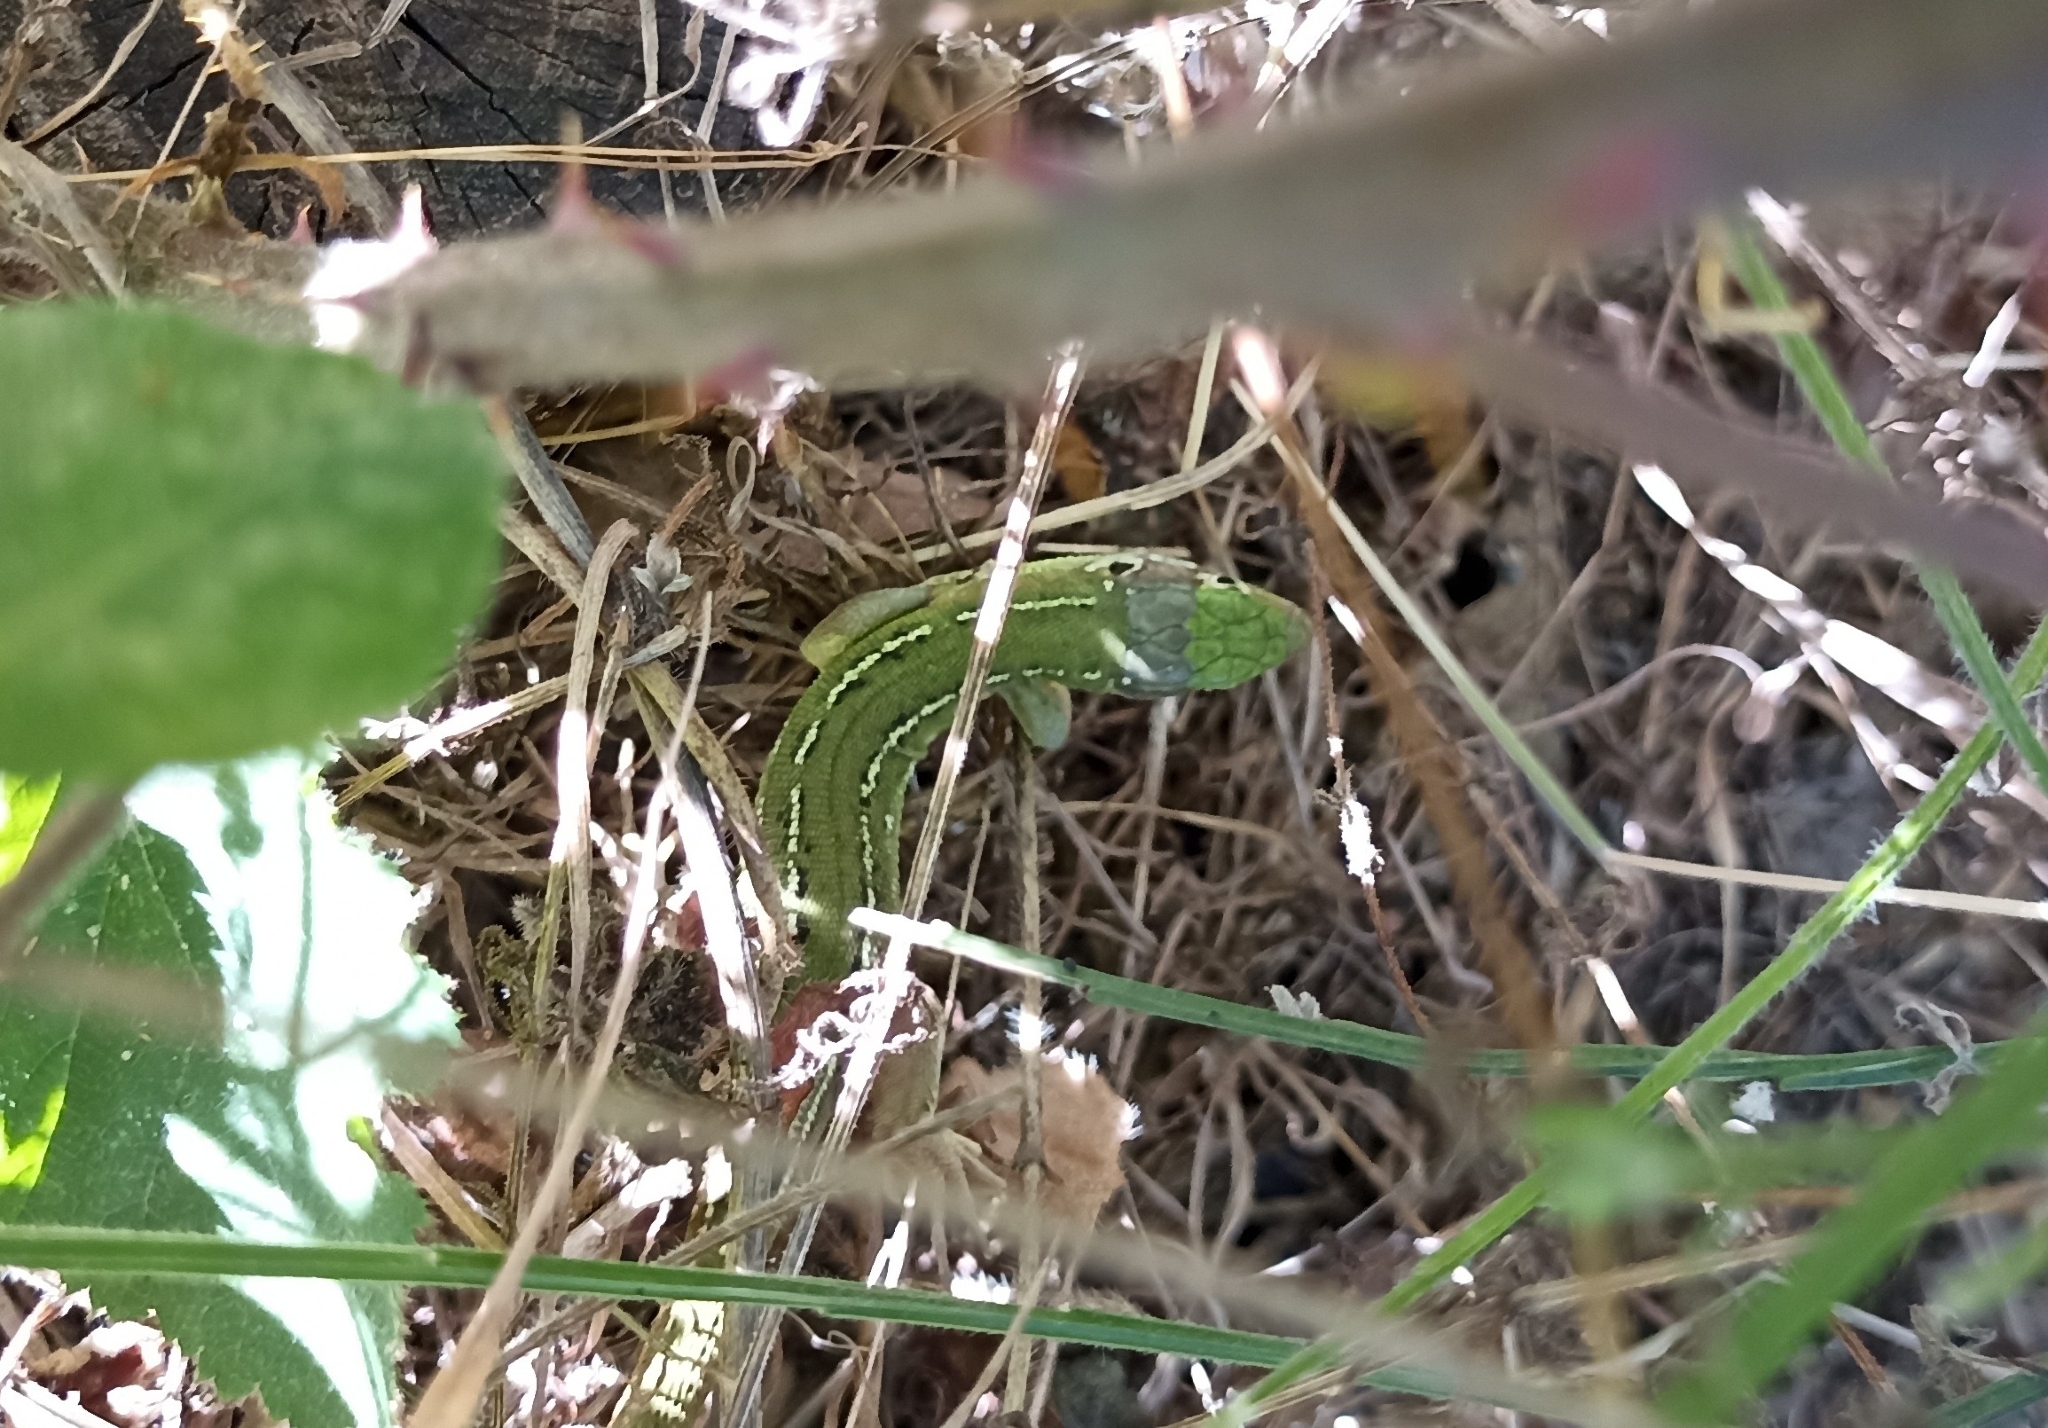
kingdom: Animalia
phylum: Chordata
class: Squamata
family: Lacertidae
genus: Lacerta
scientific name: Lacerta bilineata
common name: Western green lizard
